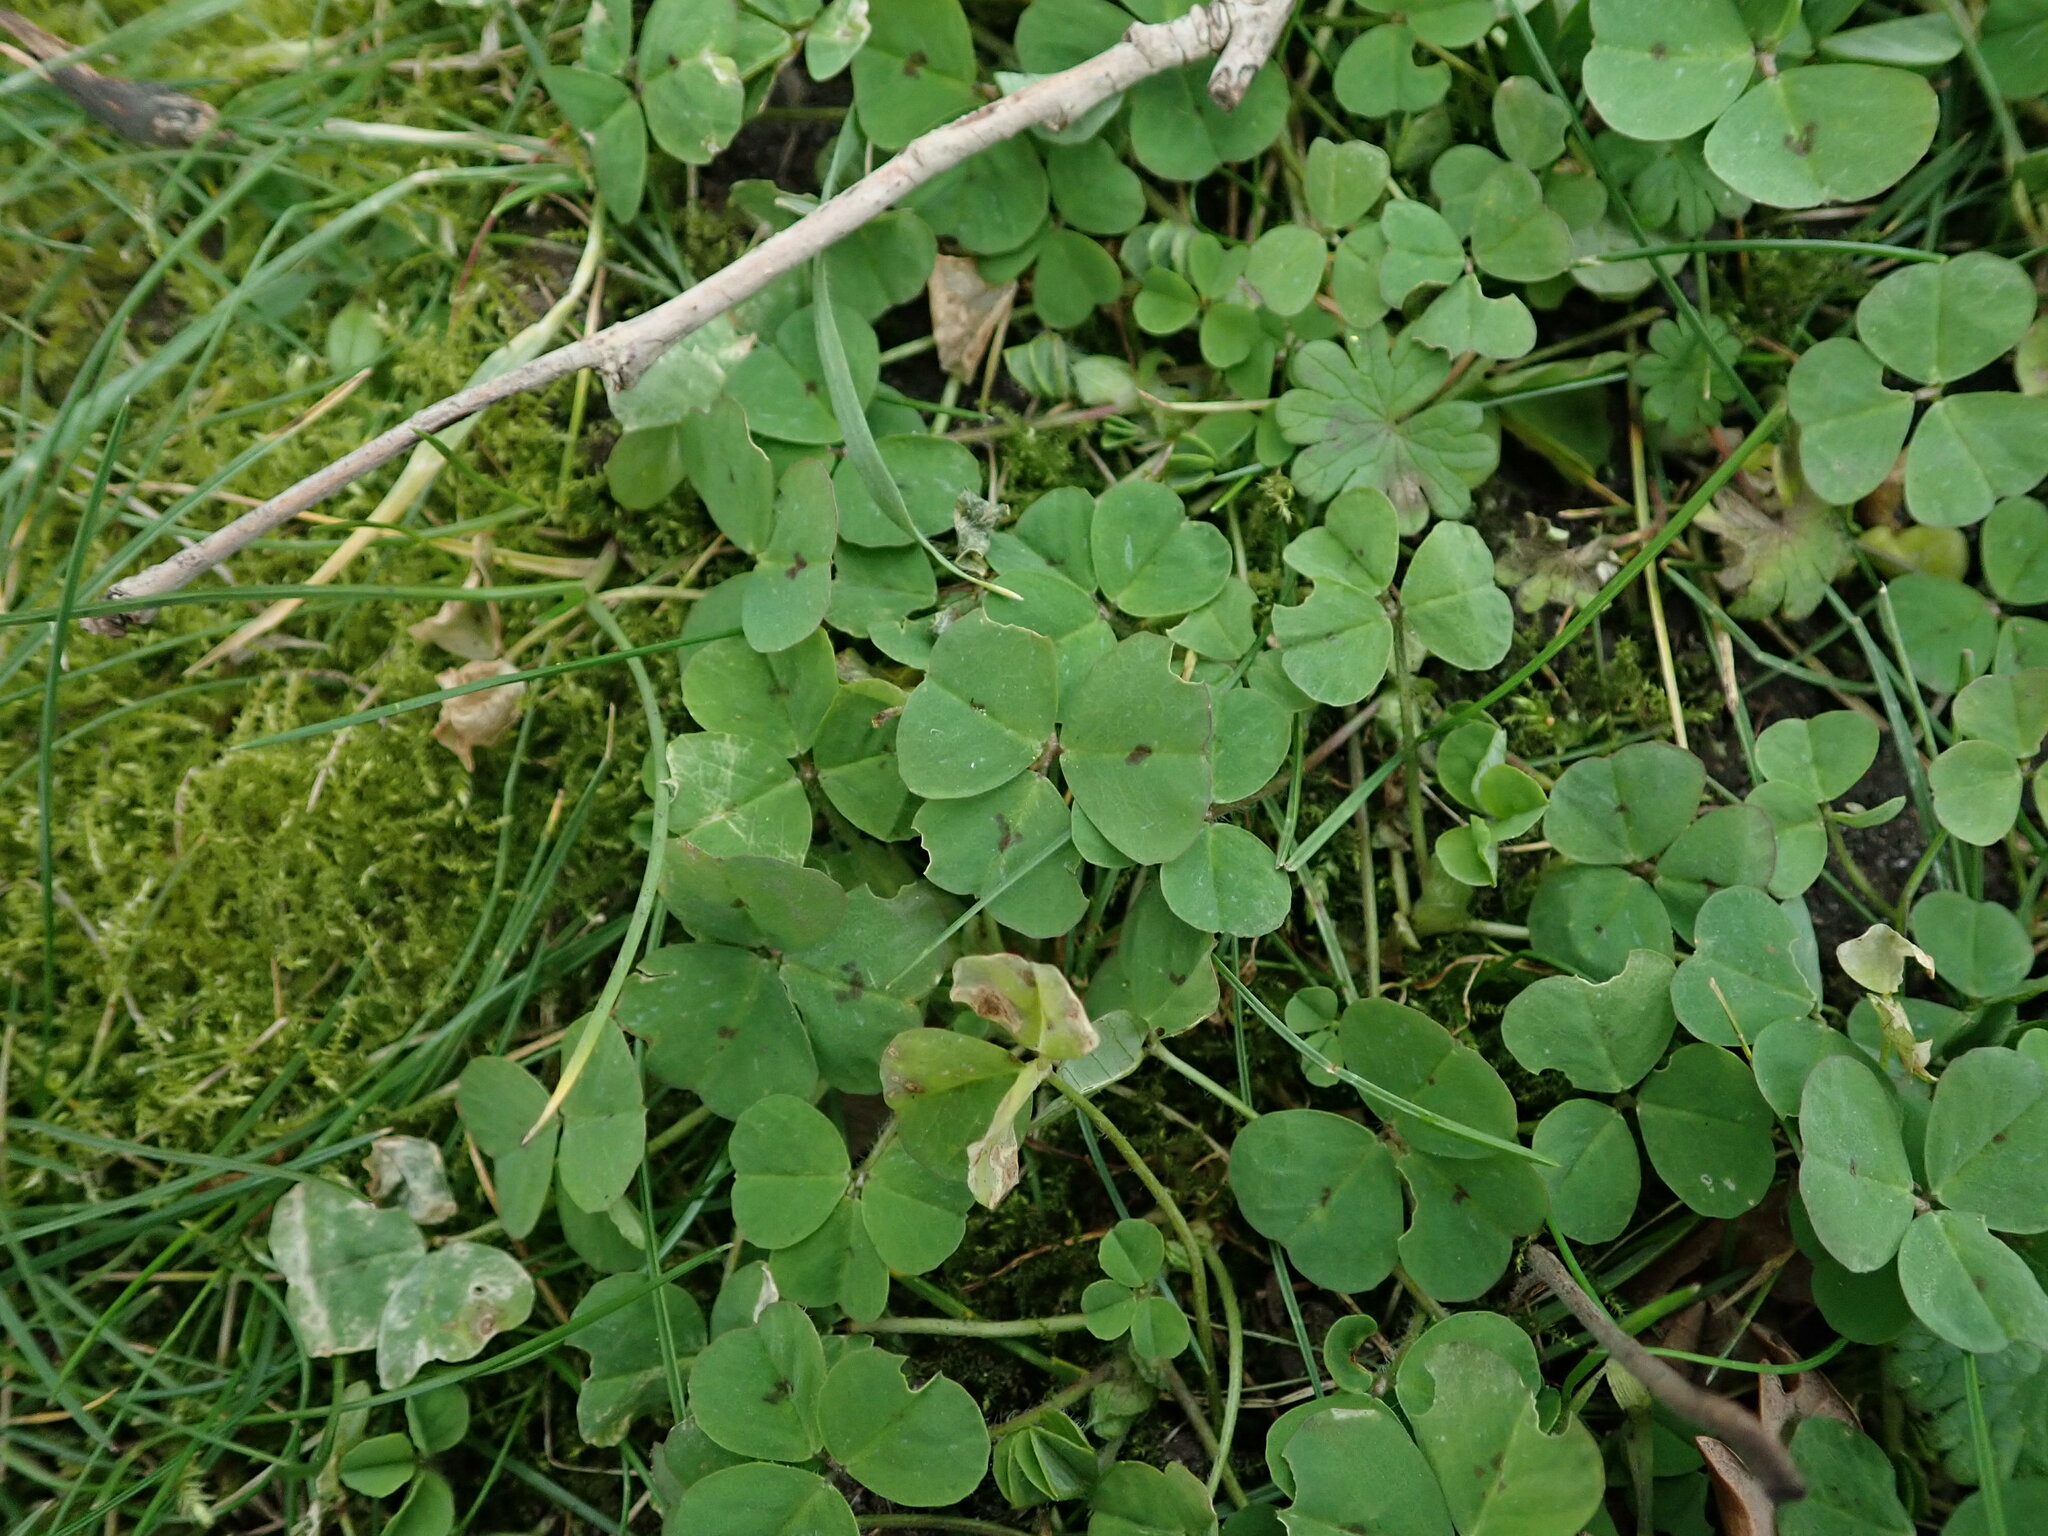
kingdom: Plantae
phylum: Tracheophyta
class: Magnoliopsida
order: Fabales
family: Fabaceae
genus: Medicago
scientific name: Medicago arabica
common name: Spotted medick
